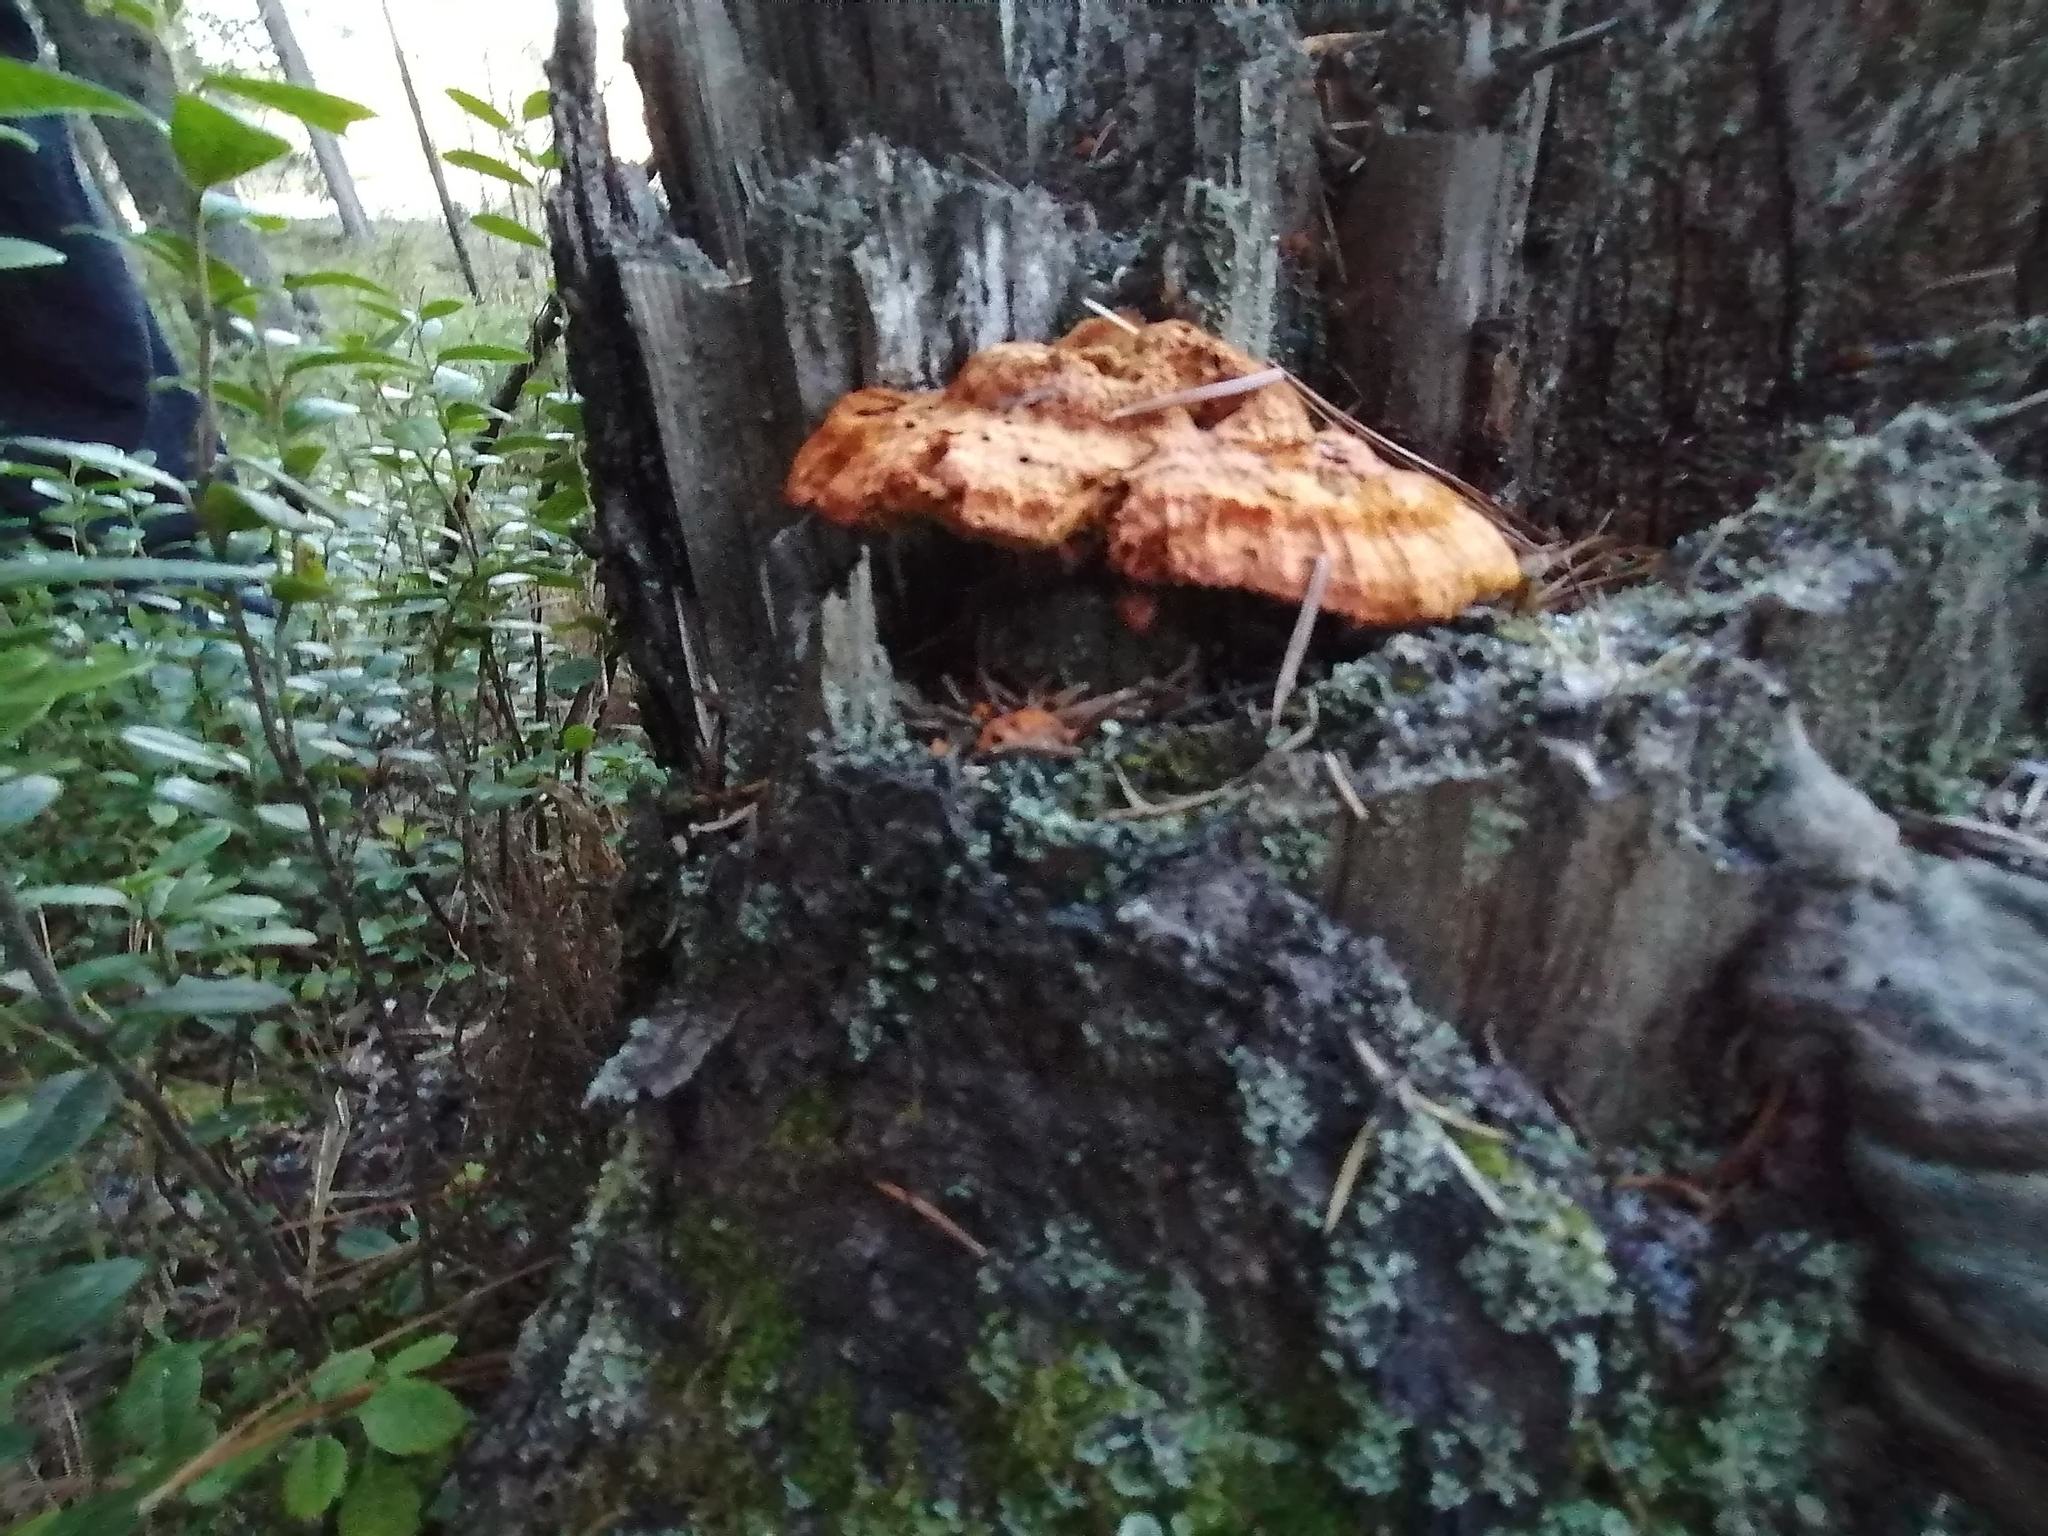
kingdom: Fungi
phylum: Basidiomycota
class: Agaricomycetes
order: Gloeophyllales
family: Gloeophyllaceae
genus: Gloeophyllum
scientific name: Gloeophyllum sepiarium
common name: Conifer mazegill
